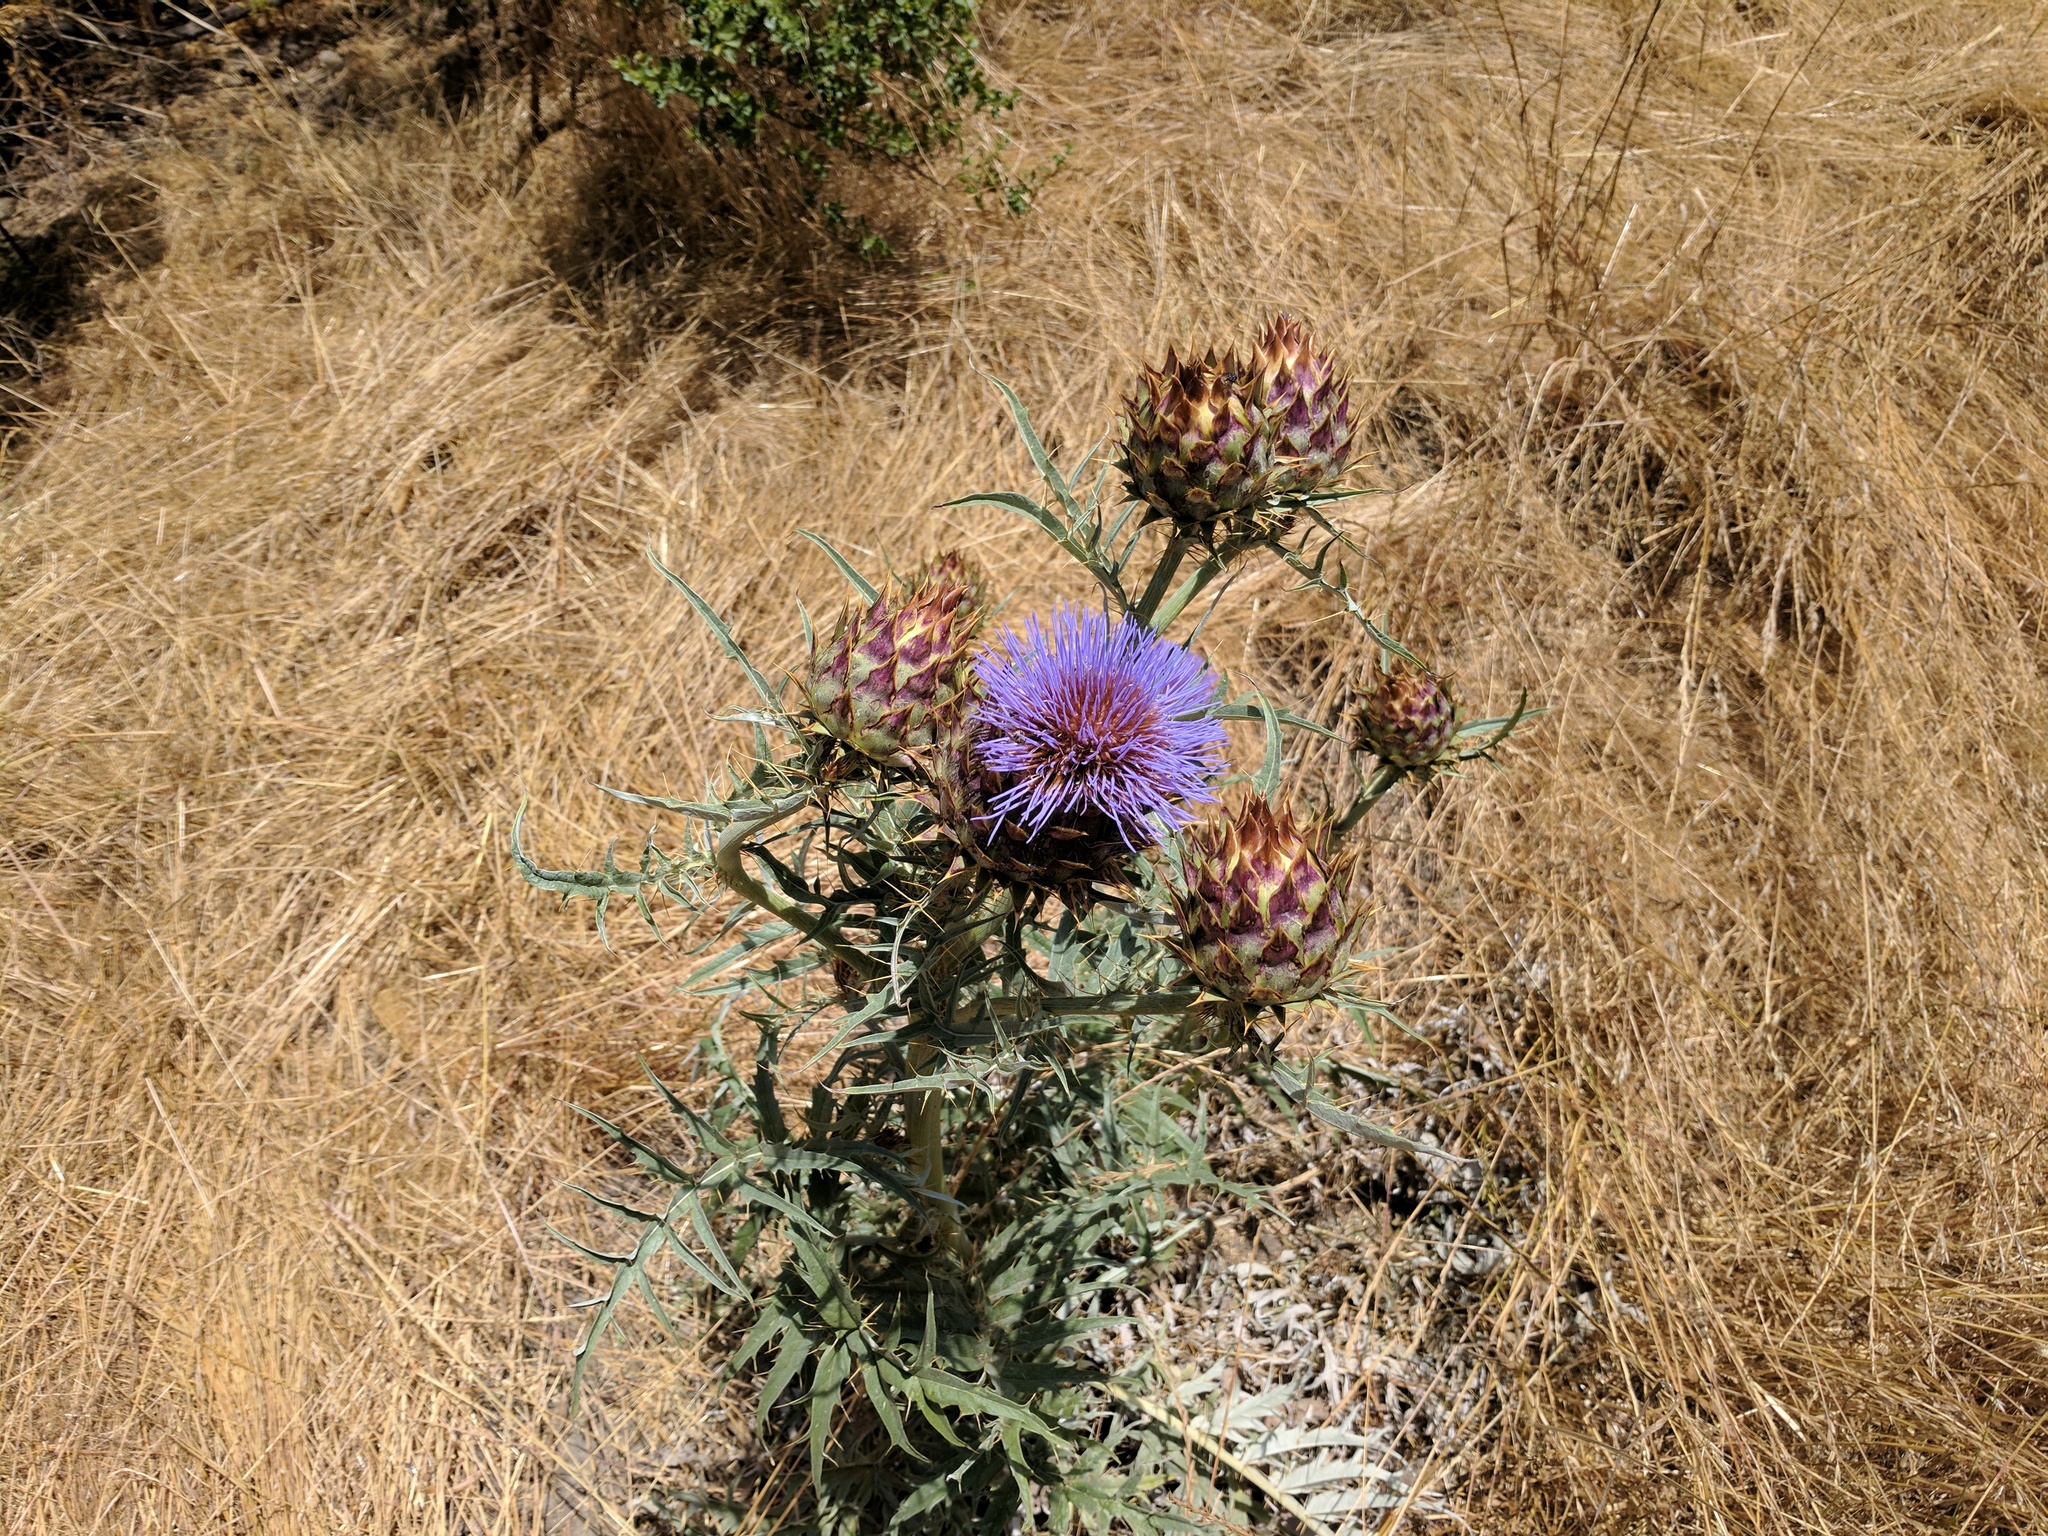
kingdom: Plantae
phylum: Tracheophyta
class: Magnoliopsida
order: Asterales
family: Asteraceae
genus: Cynara
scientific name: Cynara cardunculus
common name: Globe artichoke
